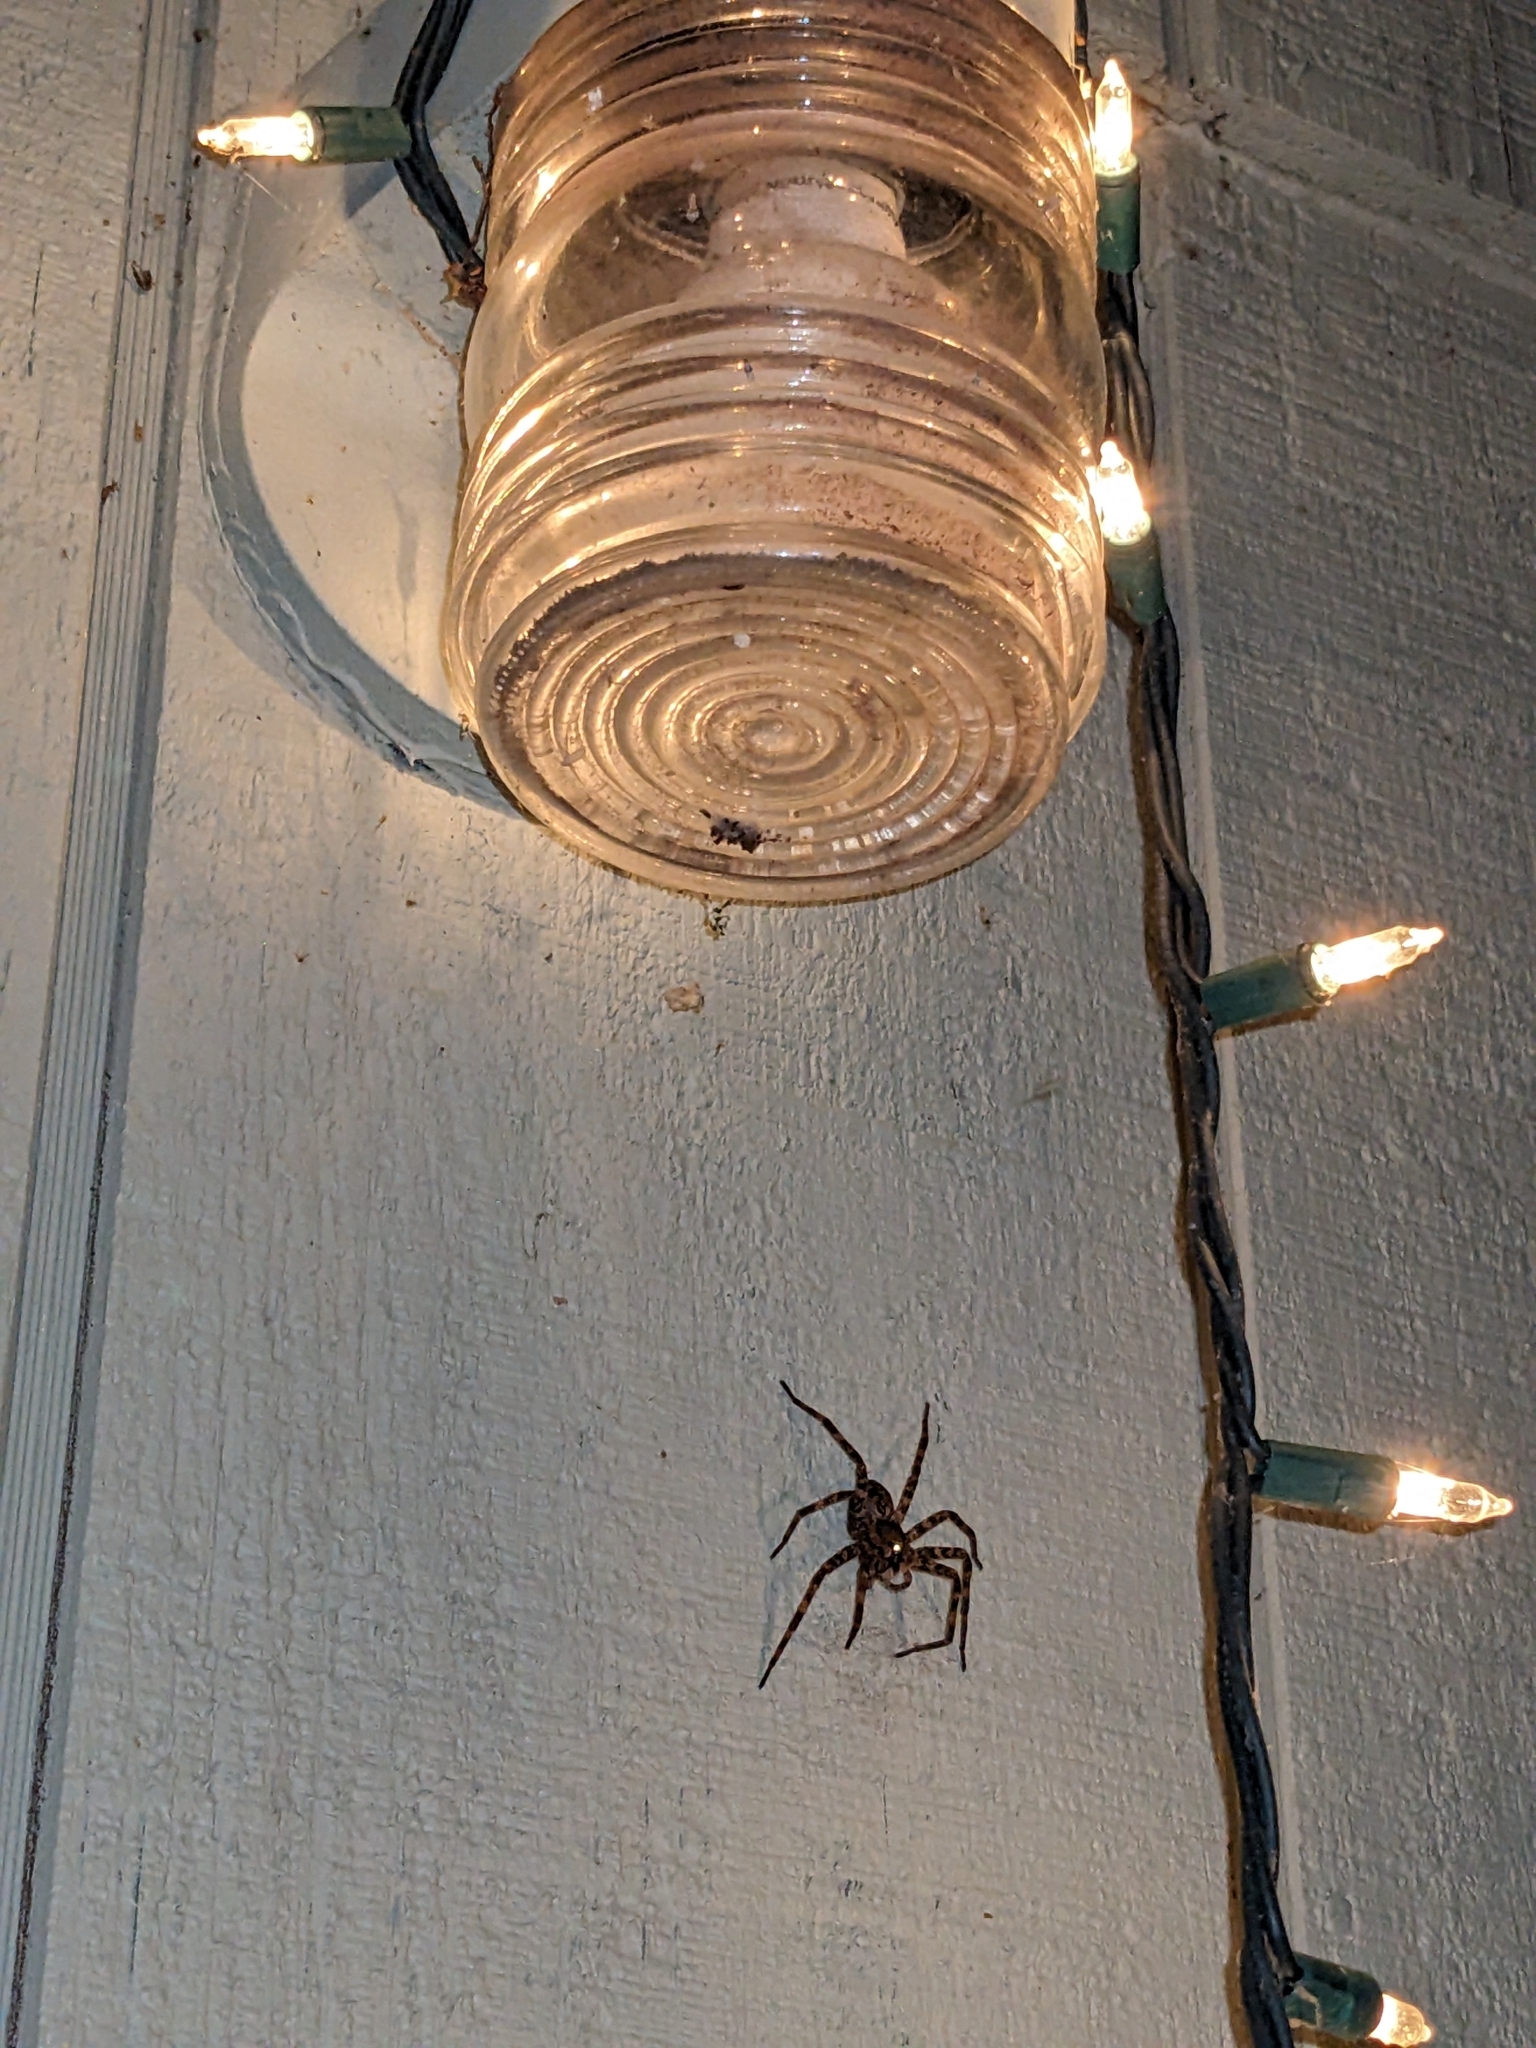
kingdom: Animalia
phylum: Arthropoda
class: Arachnida
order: Araneae
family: Pisauridae
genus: Dolomedes
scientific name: Dolomedes tenebrosus
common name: Dark fishing spider
